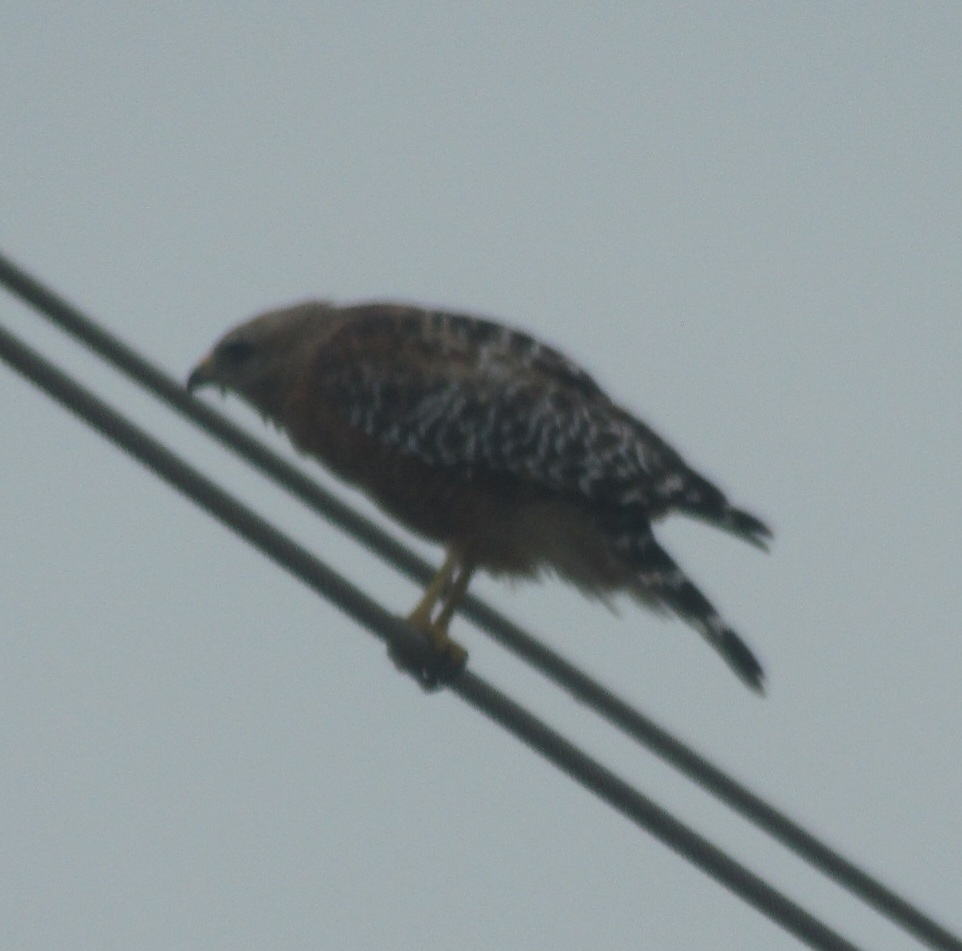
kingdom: Animalia
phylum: Chordata
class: Aves
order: Accipitriformes
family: Accipitridae
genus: Buteo
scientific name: Buteo lineatus
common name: Red-shouldered hawk
